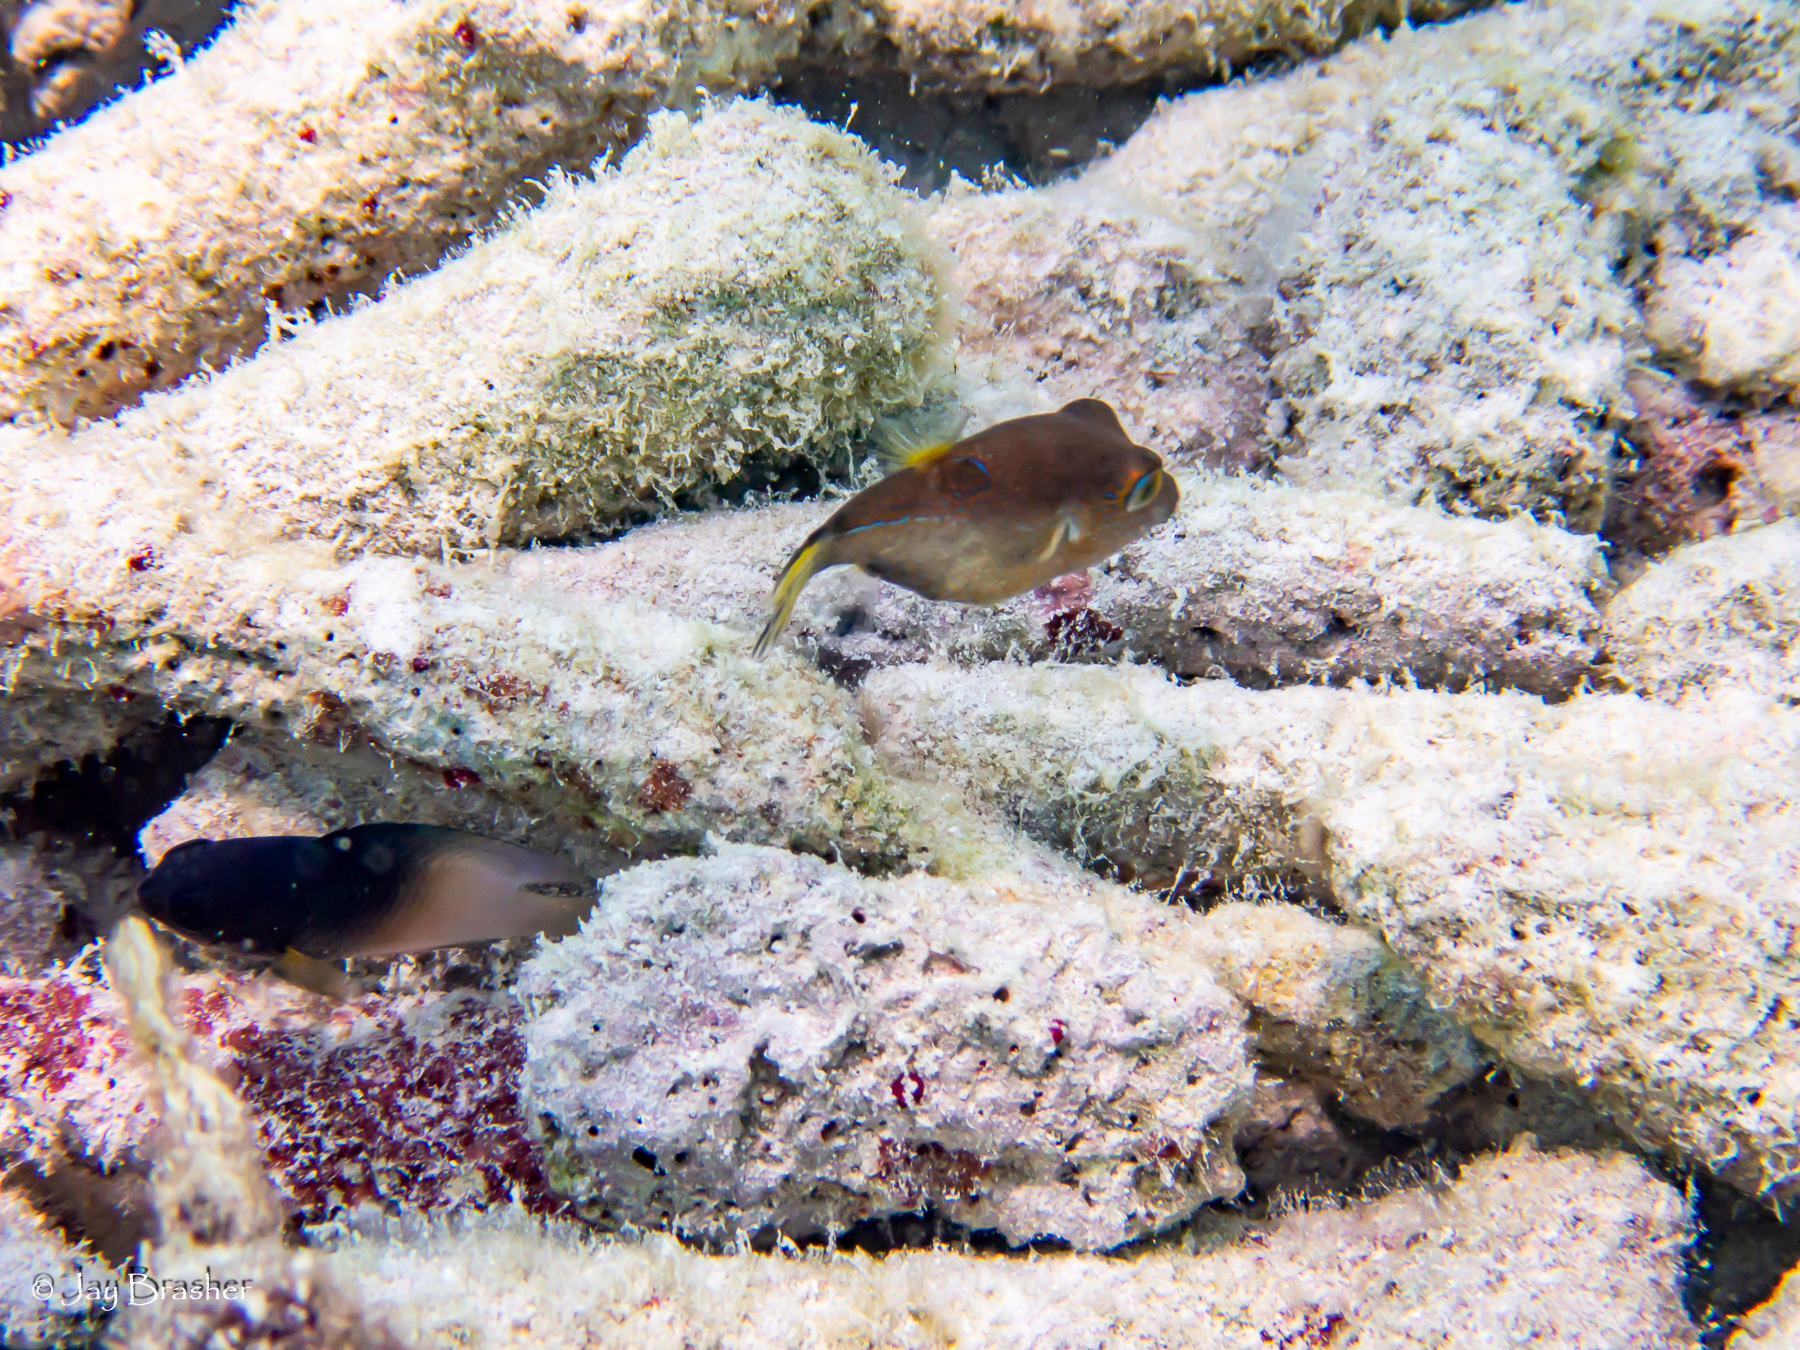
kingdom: Animalia
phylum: Chordata
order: Tetraodontiformes
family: Tetraodontidae
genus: Canthigaster
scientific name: Canthigaster rostrata
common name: Caribbean sharpnose-puffer
